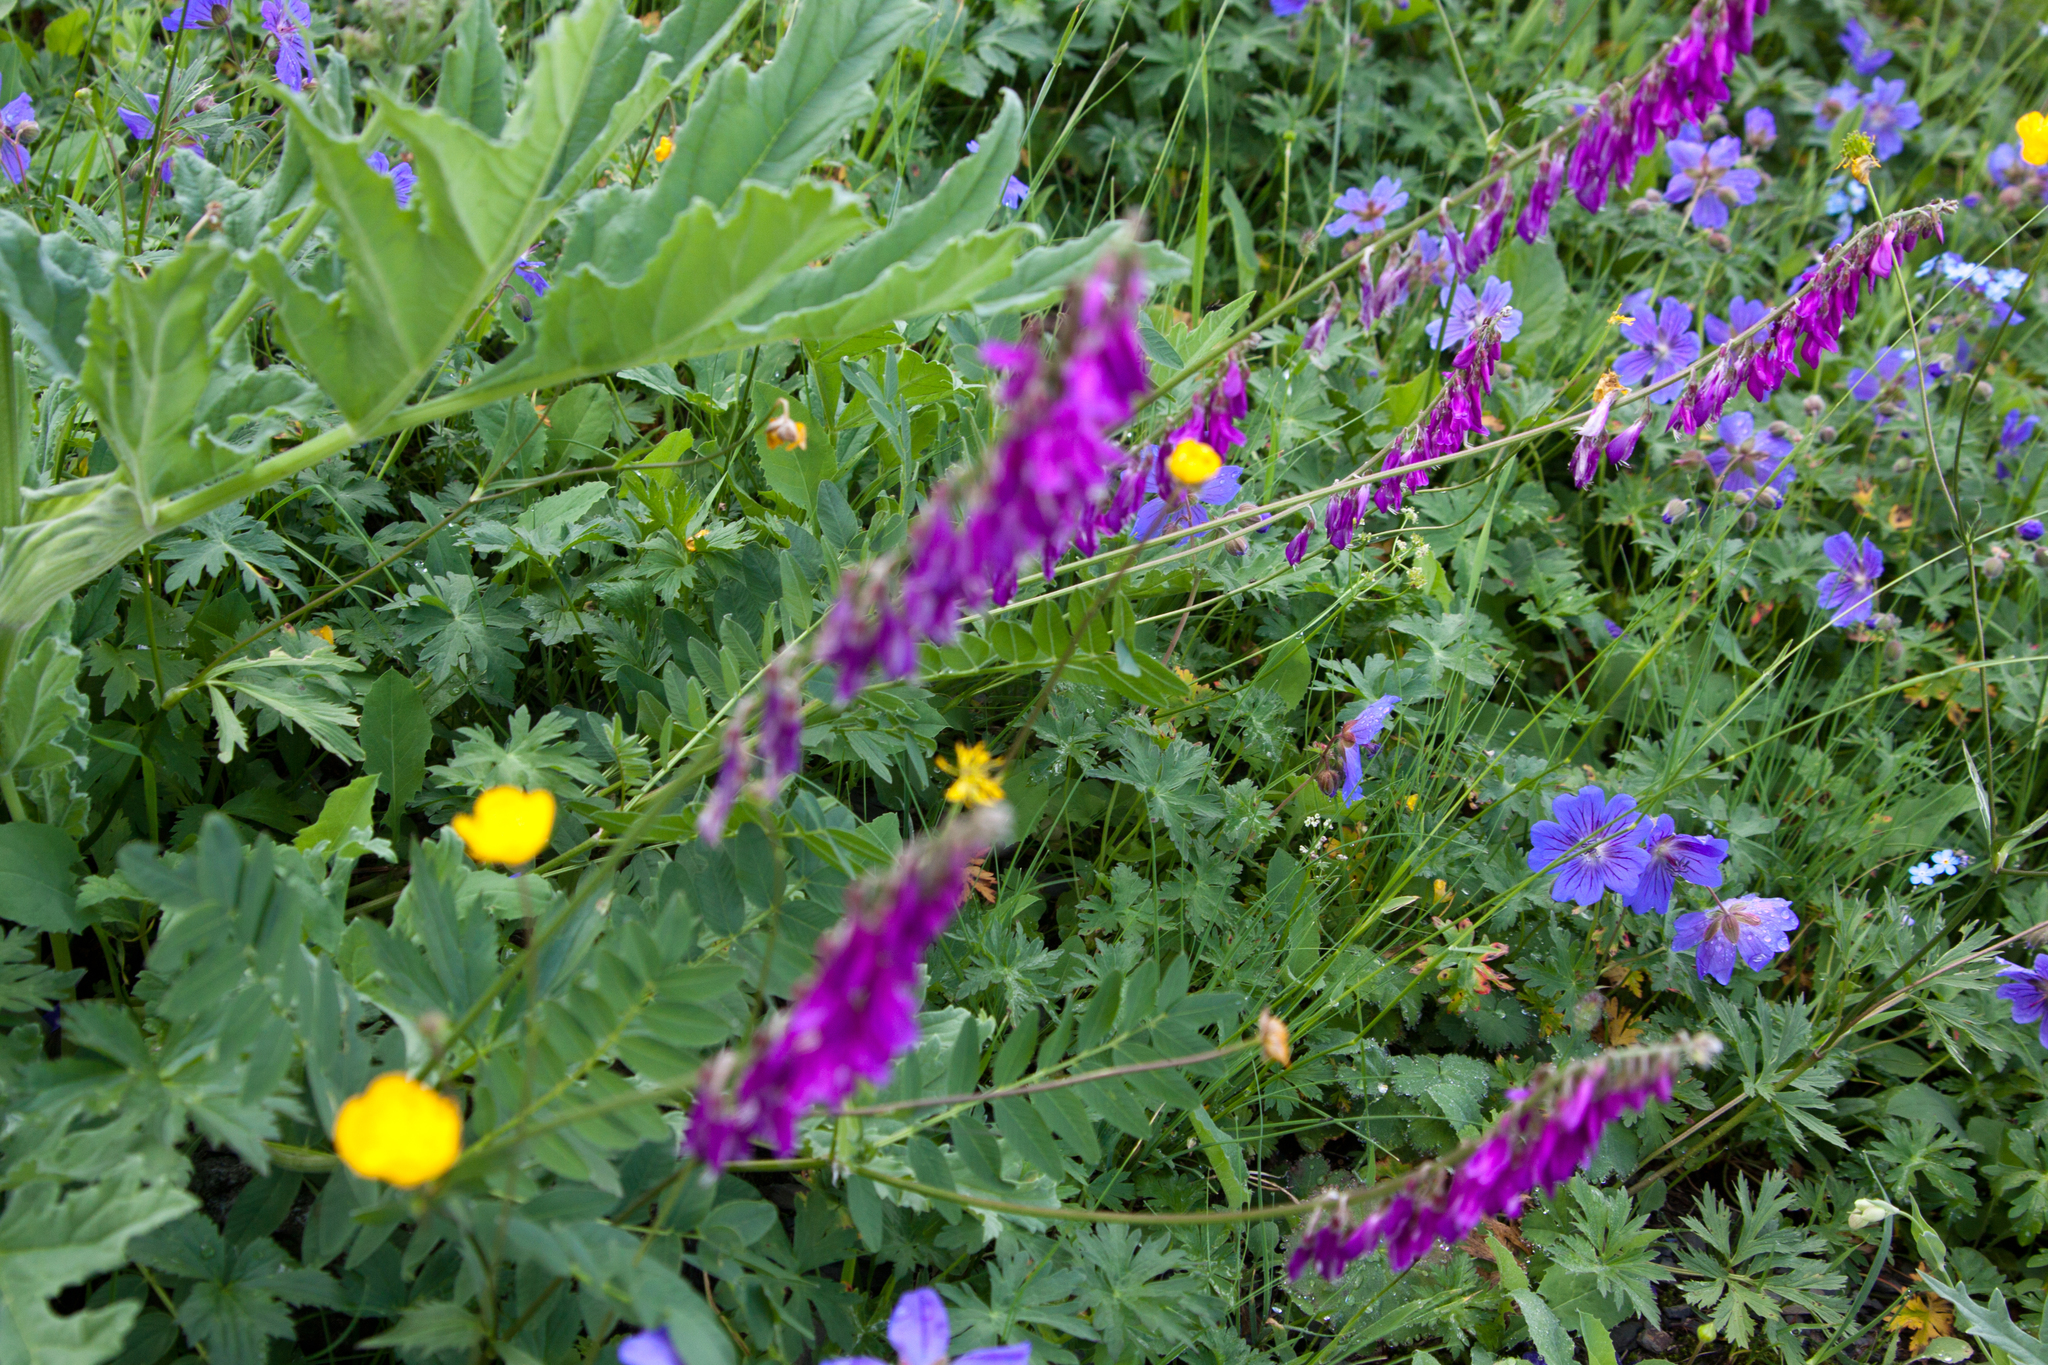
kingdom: Plantae
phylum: Tracheophyta
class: Magnoliopsida
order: Fabales
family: Fabaceae
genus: Hedysarum
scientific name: Hedysarum caucasicum
